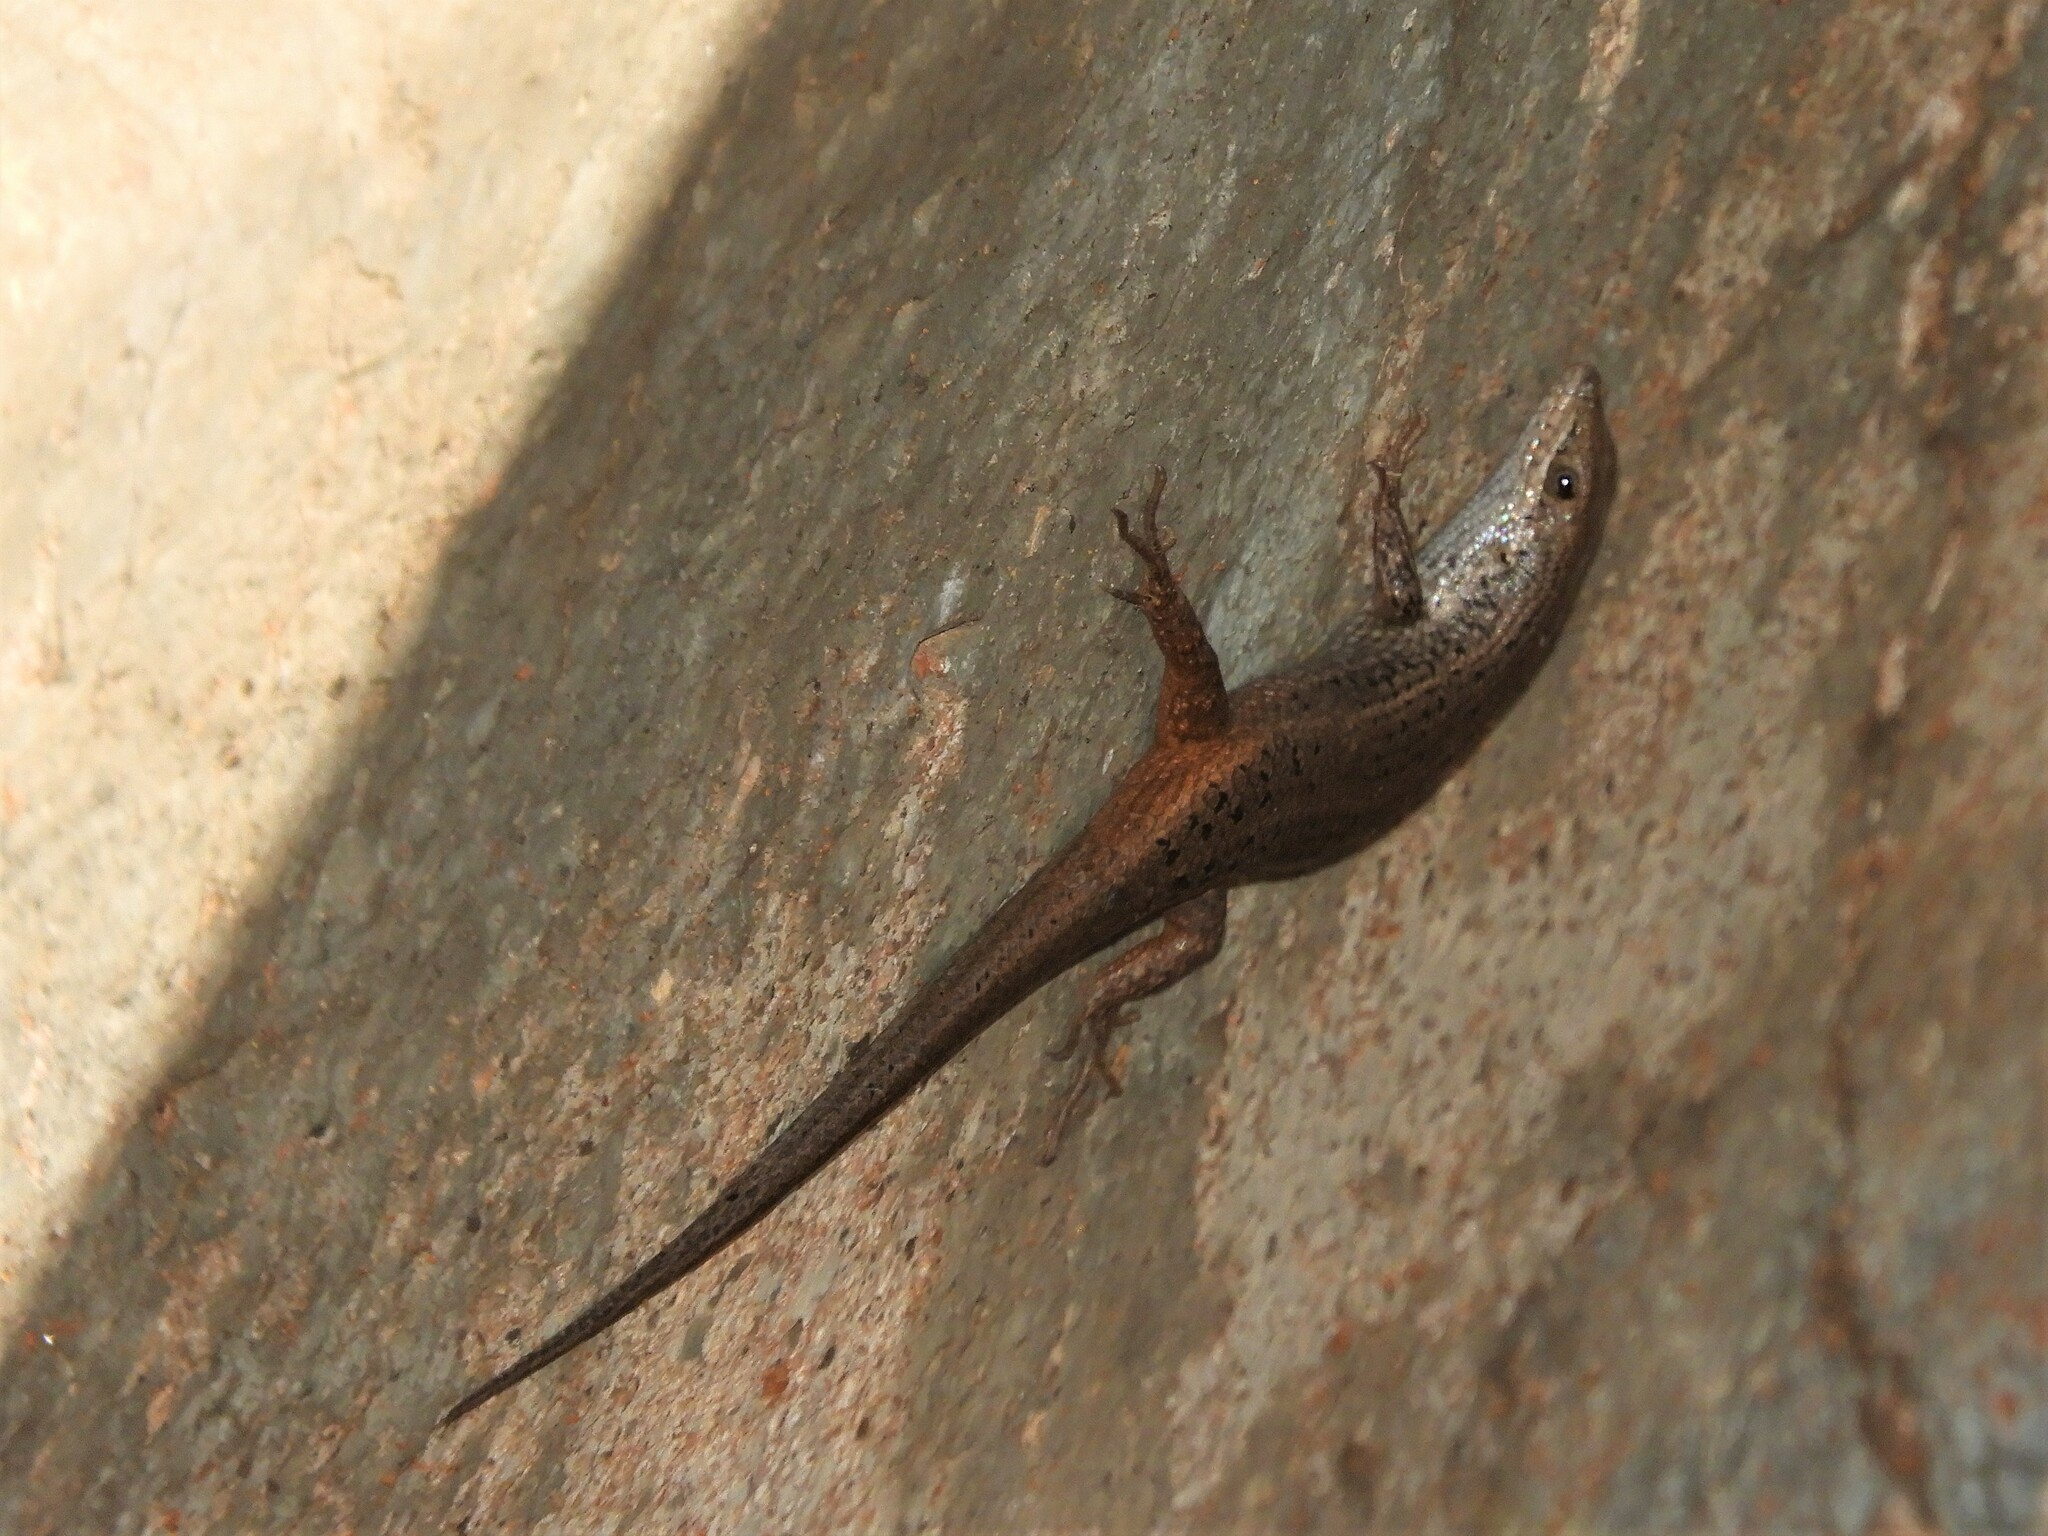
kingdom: Animalia
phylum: Chordata
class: Squamata
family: Scincidae
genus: Trachylepis
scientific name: Trachylepis variegata
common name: Variegated skink
